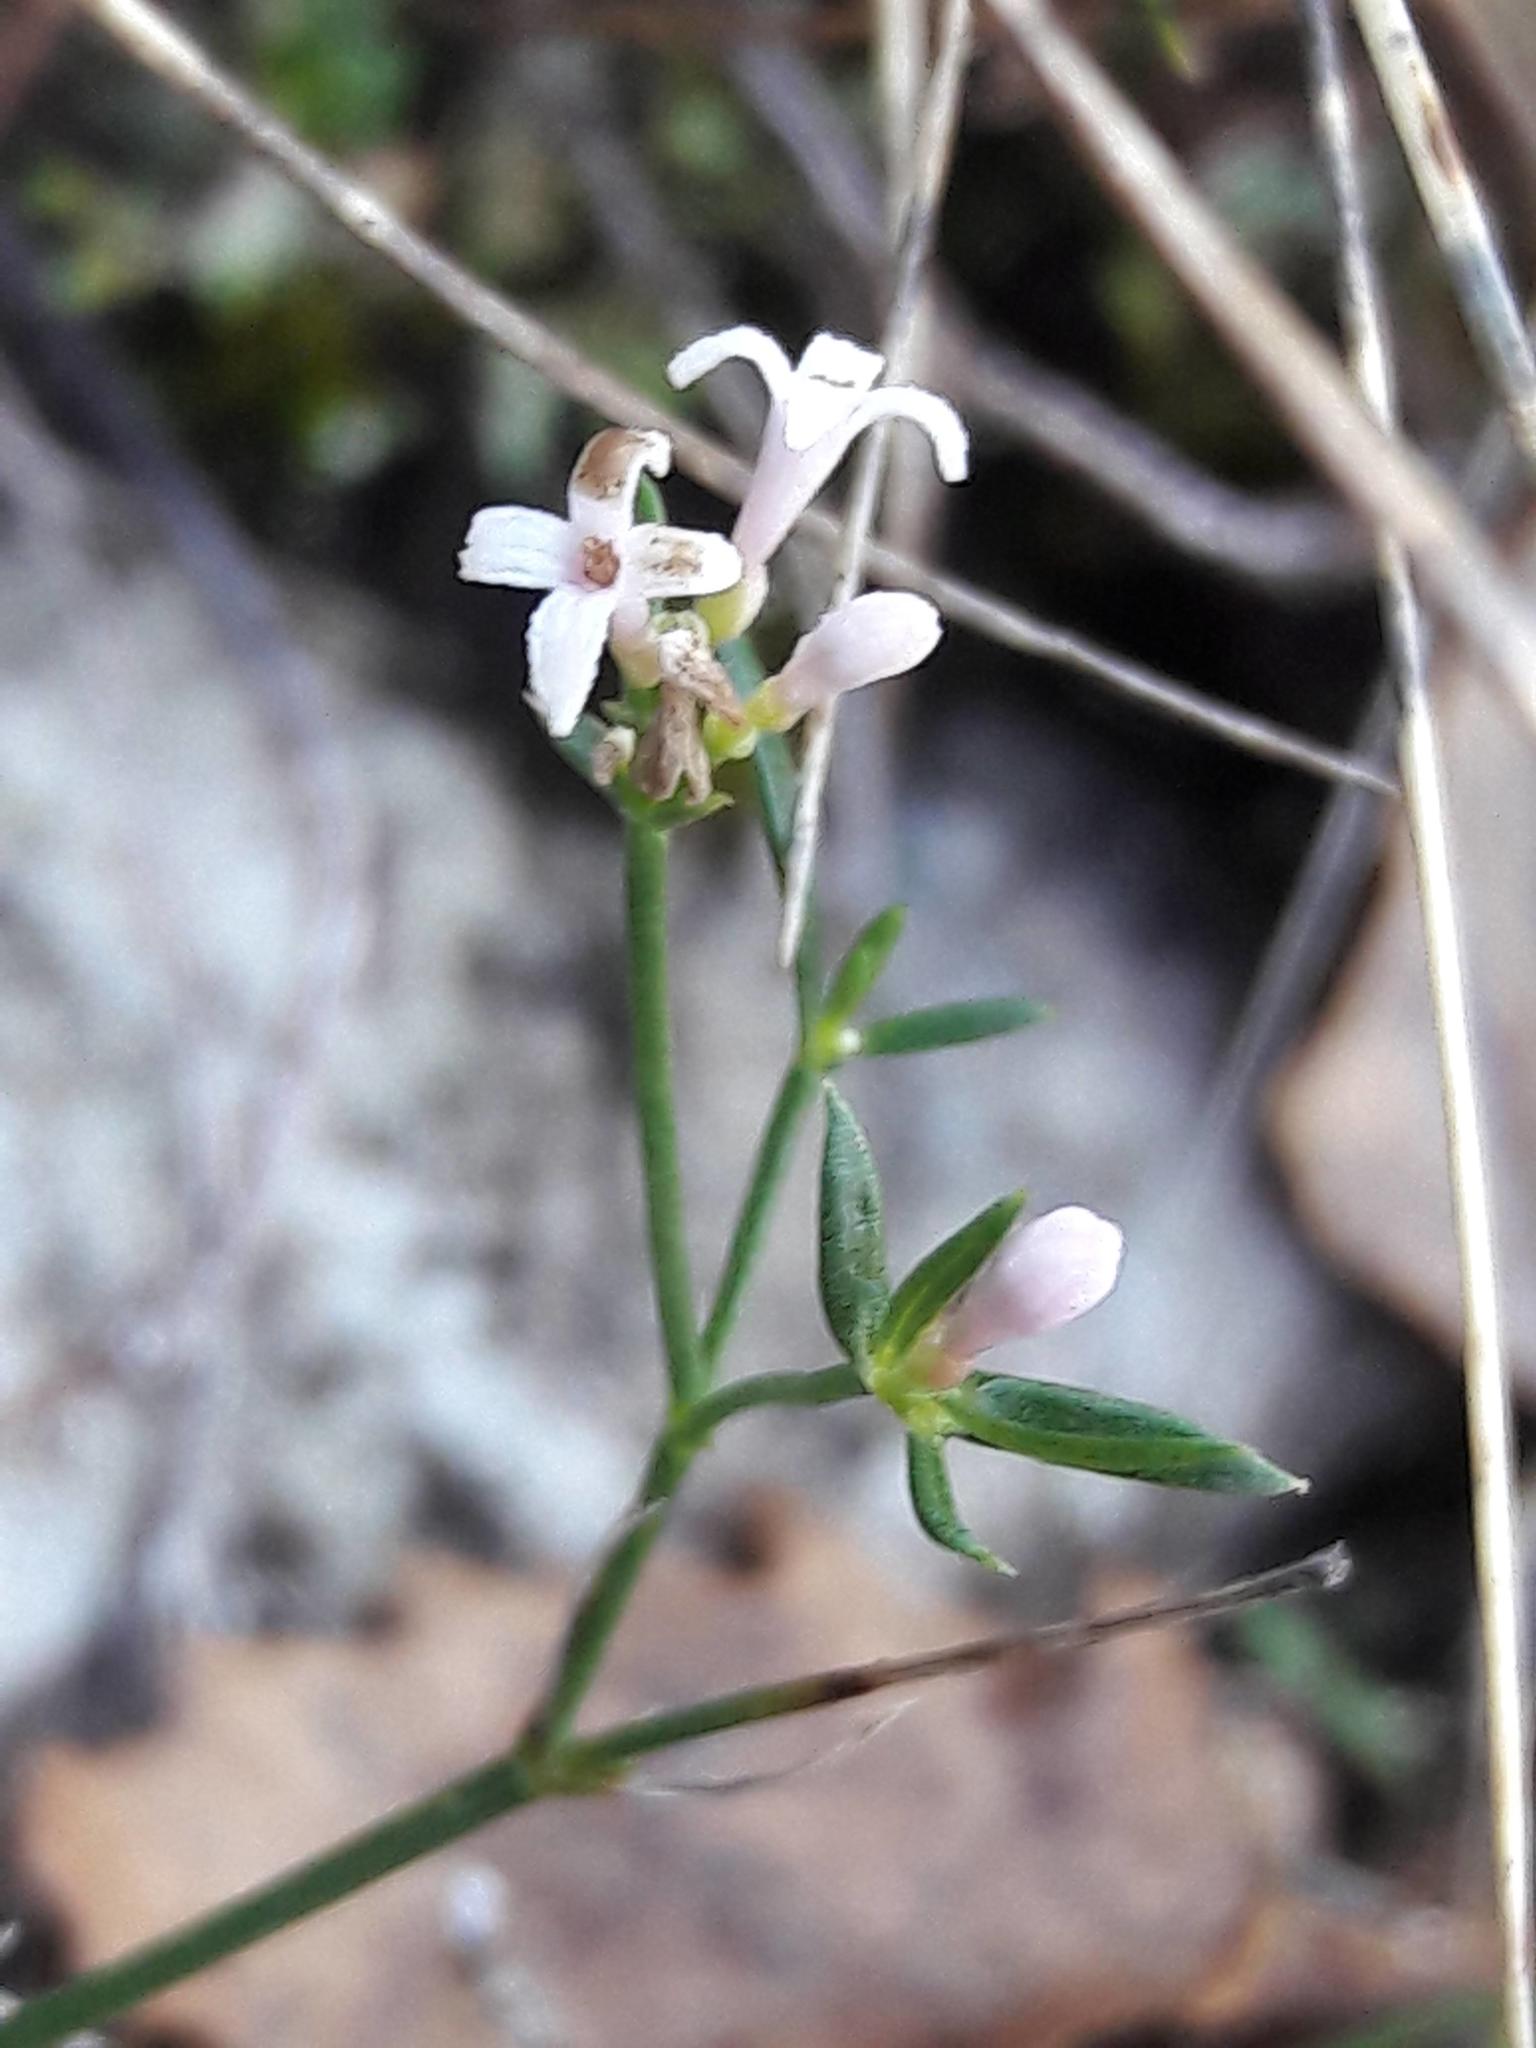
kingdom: Plantae
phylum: Tracheophyta
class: Magnoliopsida
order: Gentianales
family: Rubiaceae
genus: Cynanchica
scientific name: Cynanchica pyrenaica
